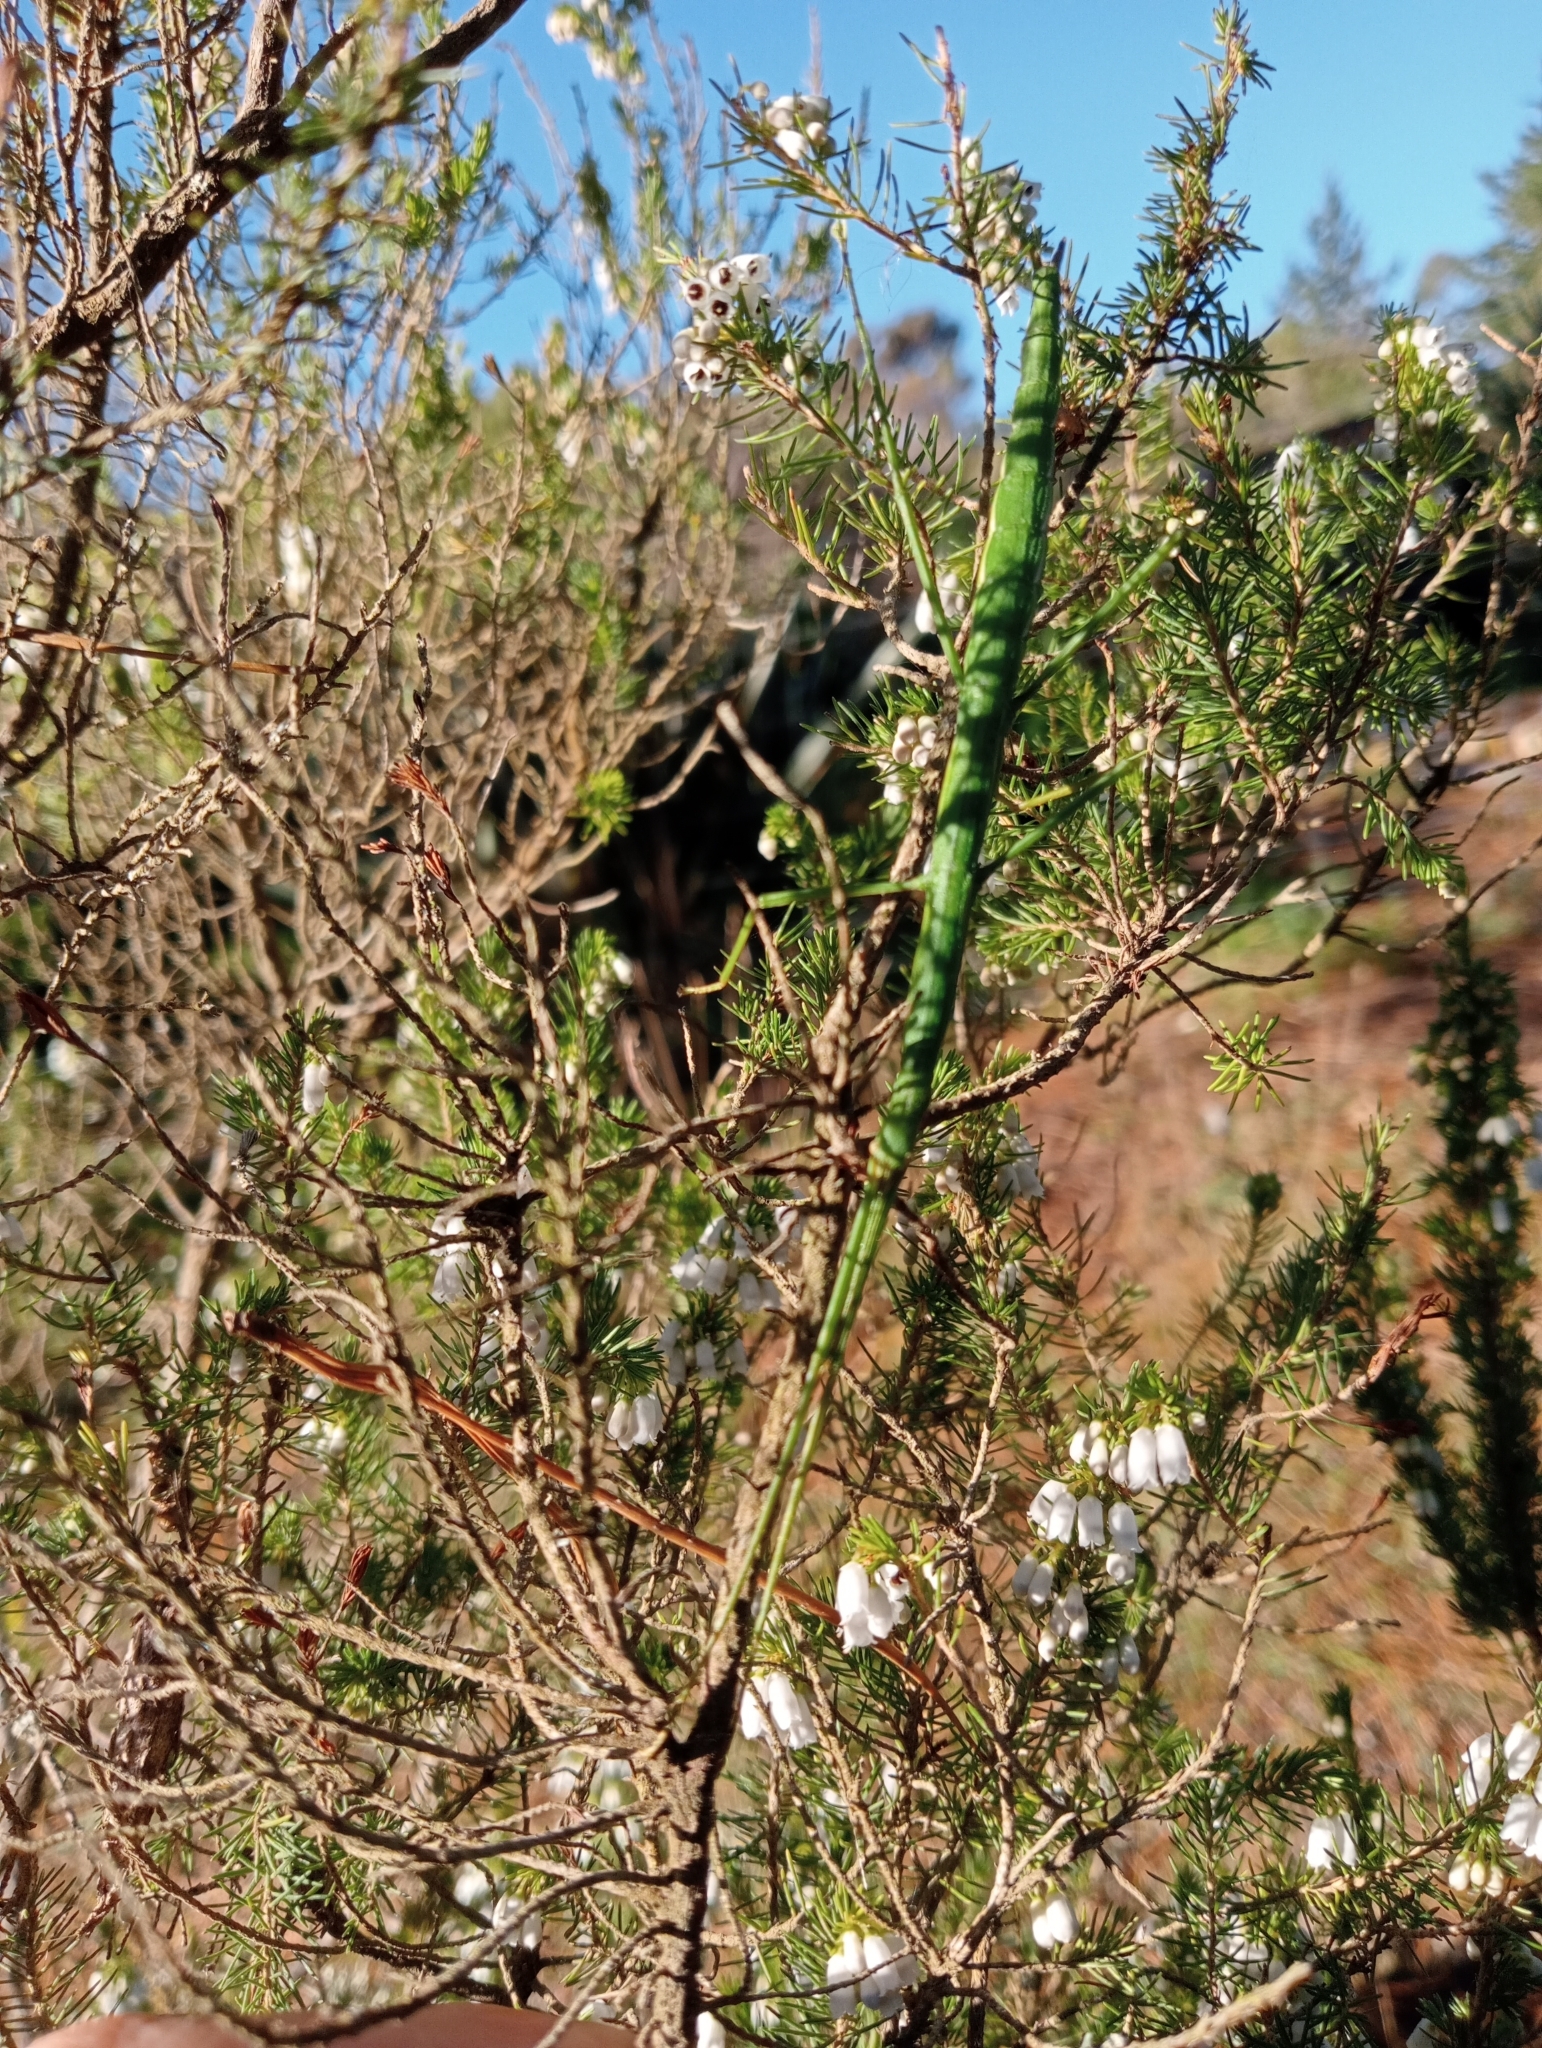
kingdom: Animalia
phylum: Arthropoda
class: Insecta
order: Phasmida
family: Phasmatidae
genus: Clitarchus
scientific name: Clitarchus hookeri
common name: Smooth stick insect
